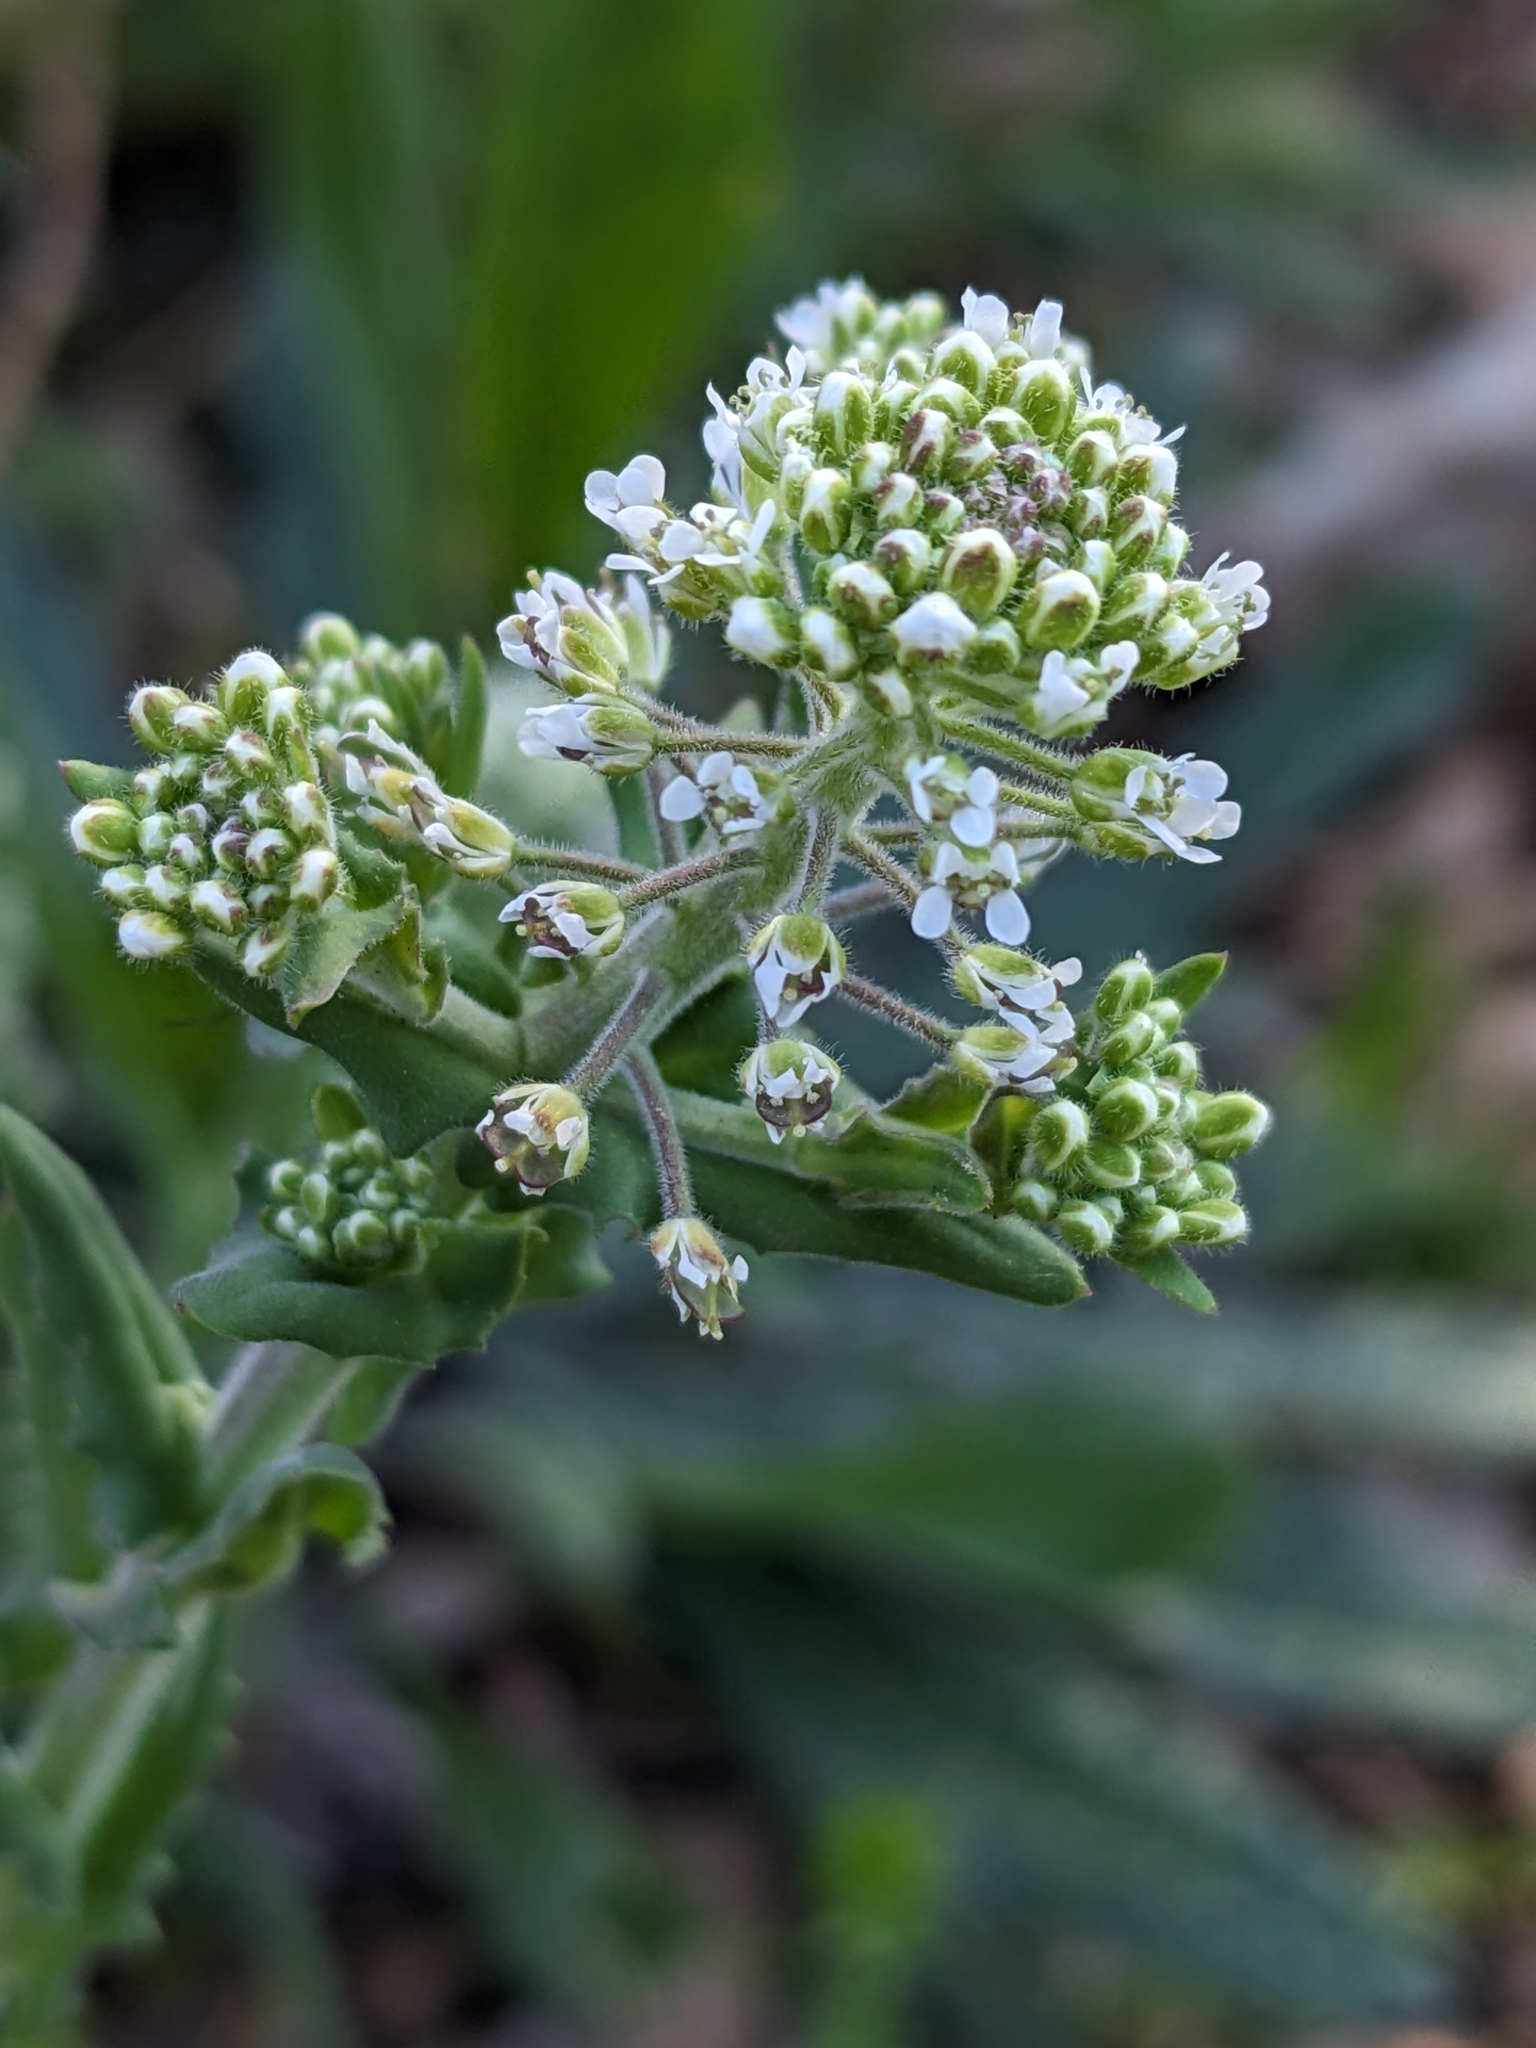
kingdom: Plantae
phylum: Tracheophyta
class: Magnoliopsida
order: Brassicales
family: Brassicaceae
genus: Lepidium
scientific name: Lepidium campestre
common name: Field pepperwort
